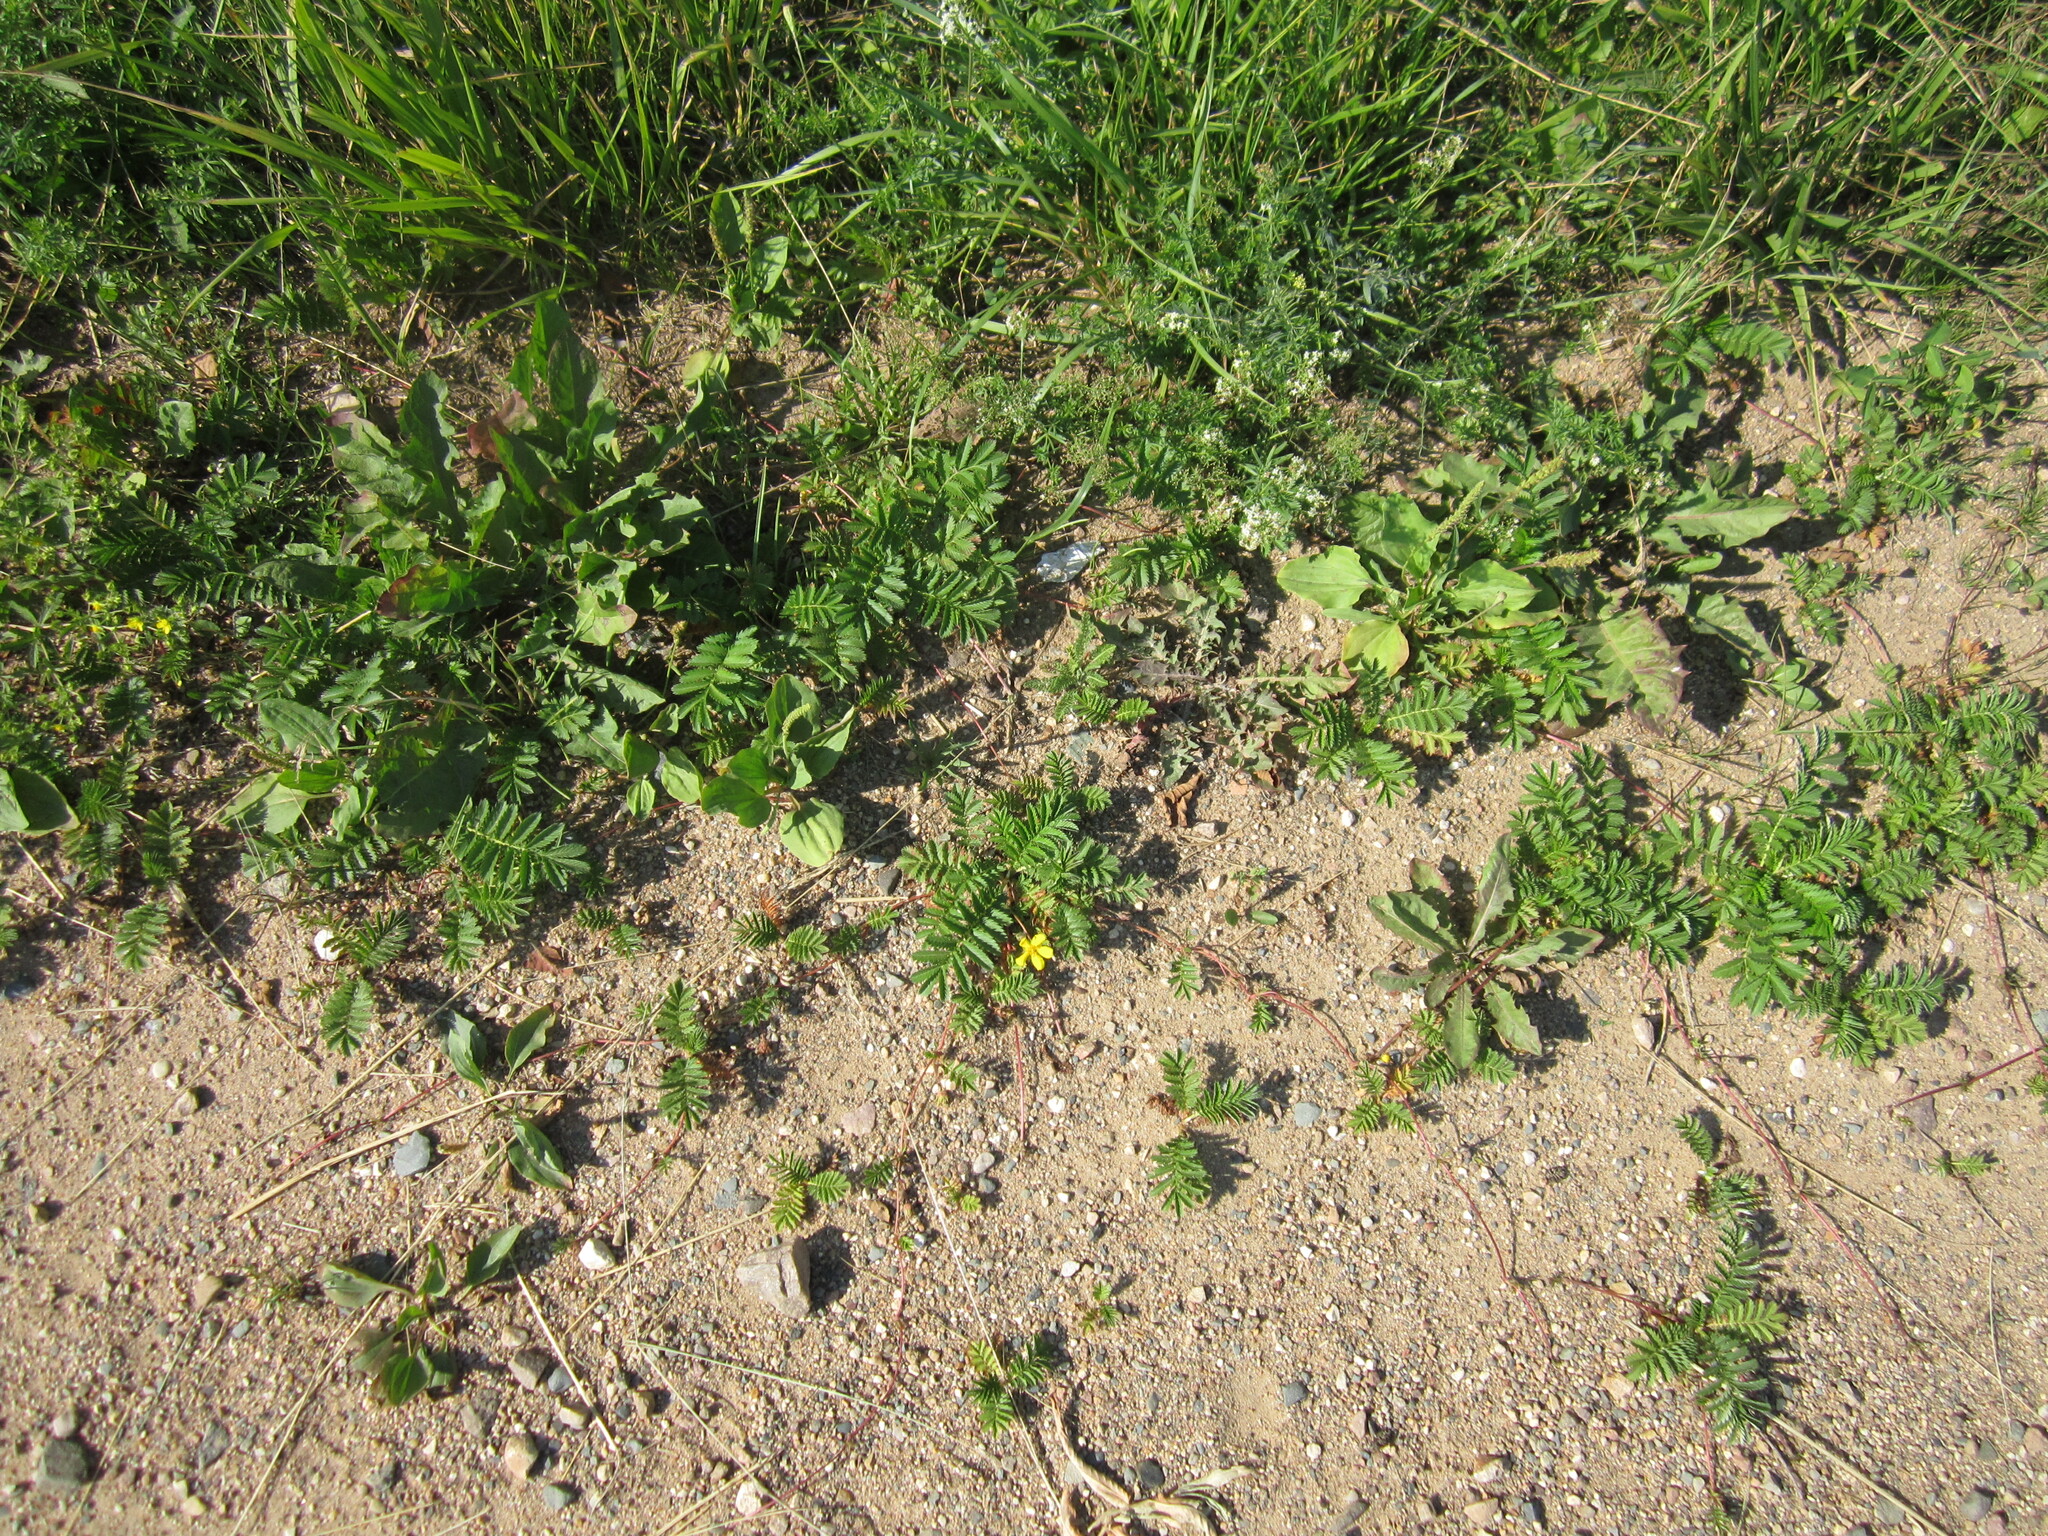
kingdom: Plantae
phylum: Tracheophyta
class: Magnoliopsida
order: Rosales
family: Rosaceae
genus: Argentina
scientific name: Argentina anserina
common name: Common silverweed
